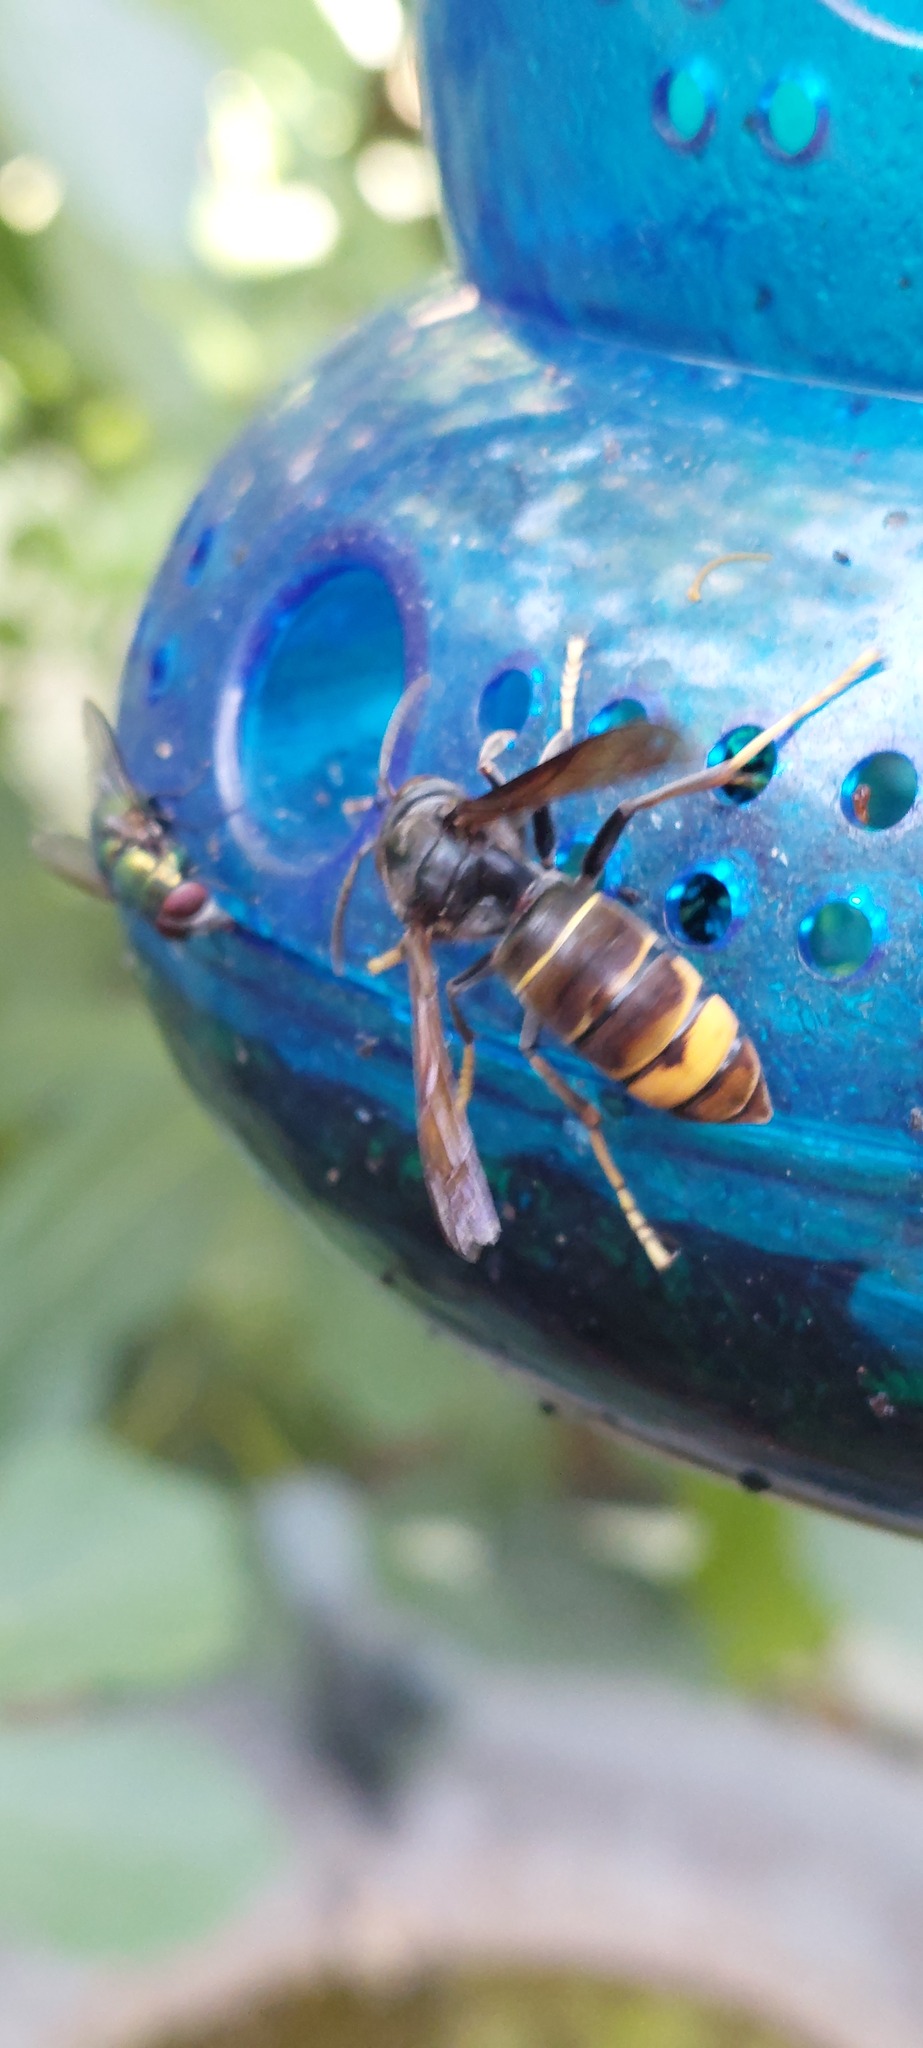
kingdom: Animalia
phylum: Arthropoda
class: Insecta
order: Hymenoptera
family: Vespidae
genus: Vespa
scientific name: Vespa velutina
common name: Asian hornet
